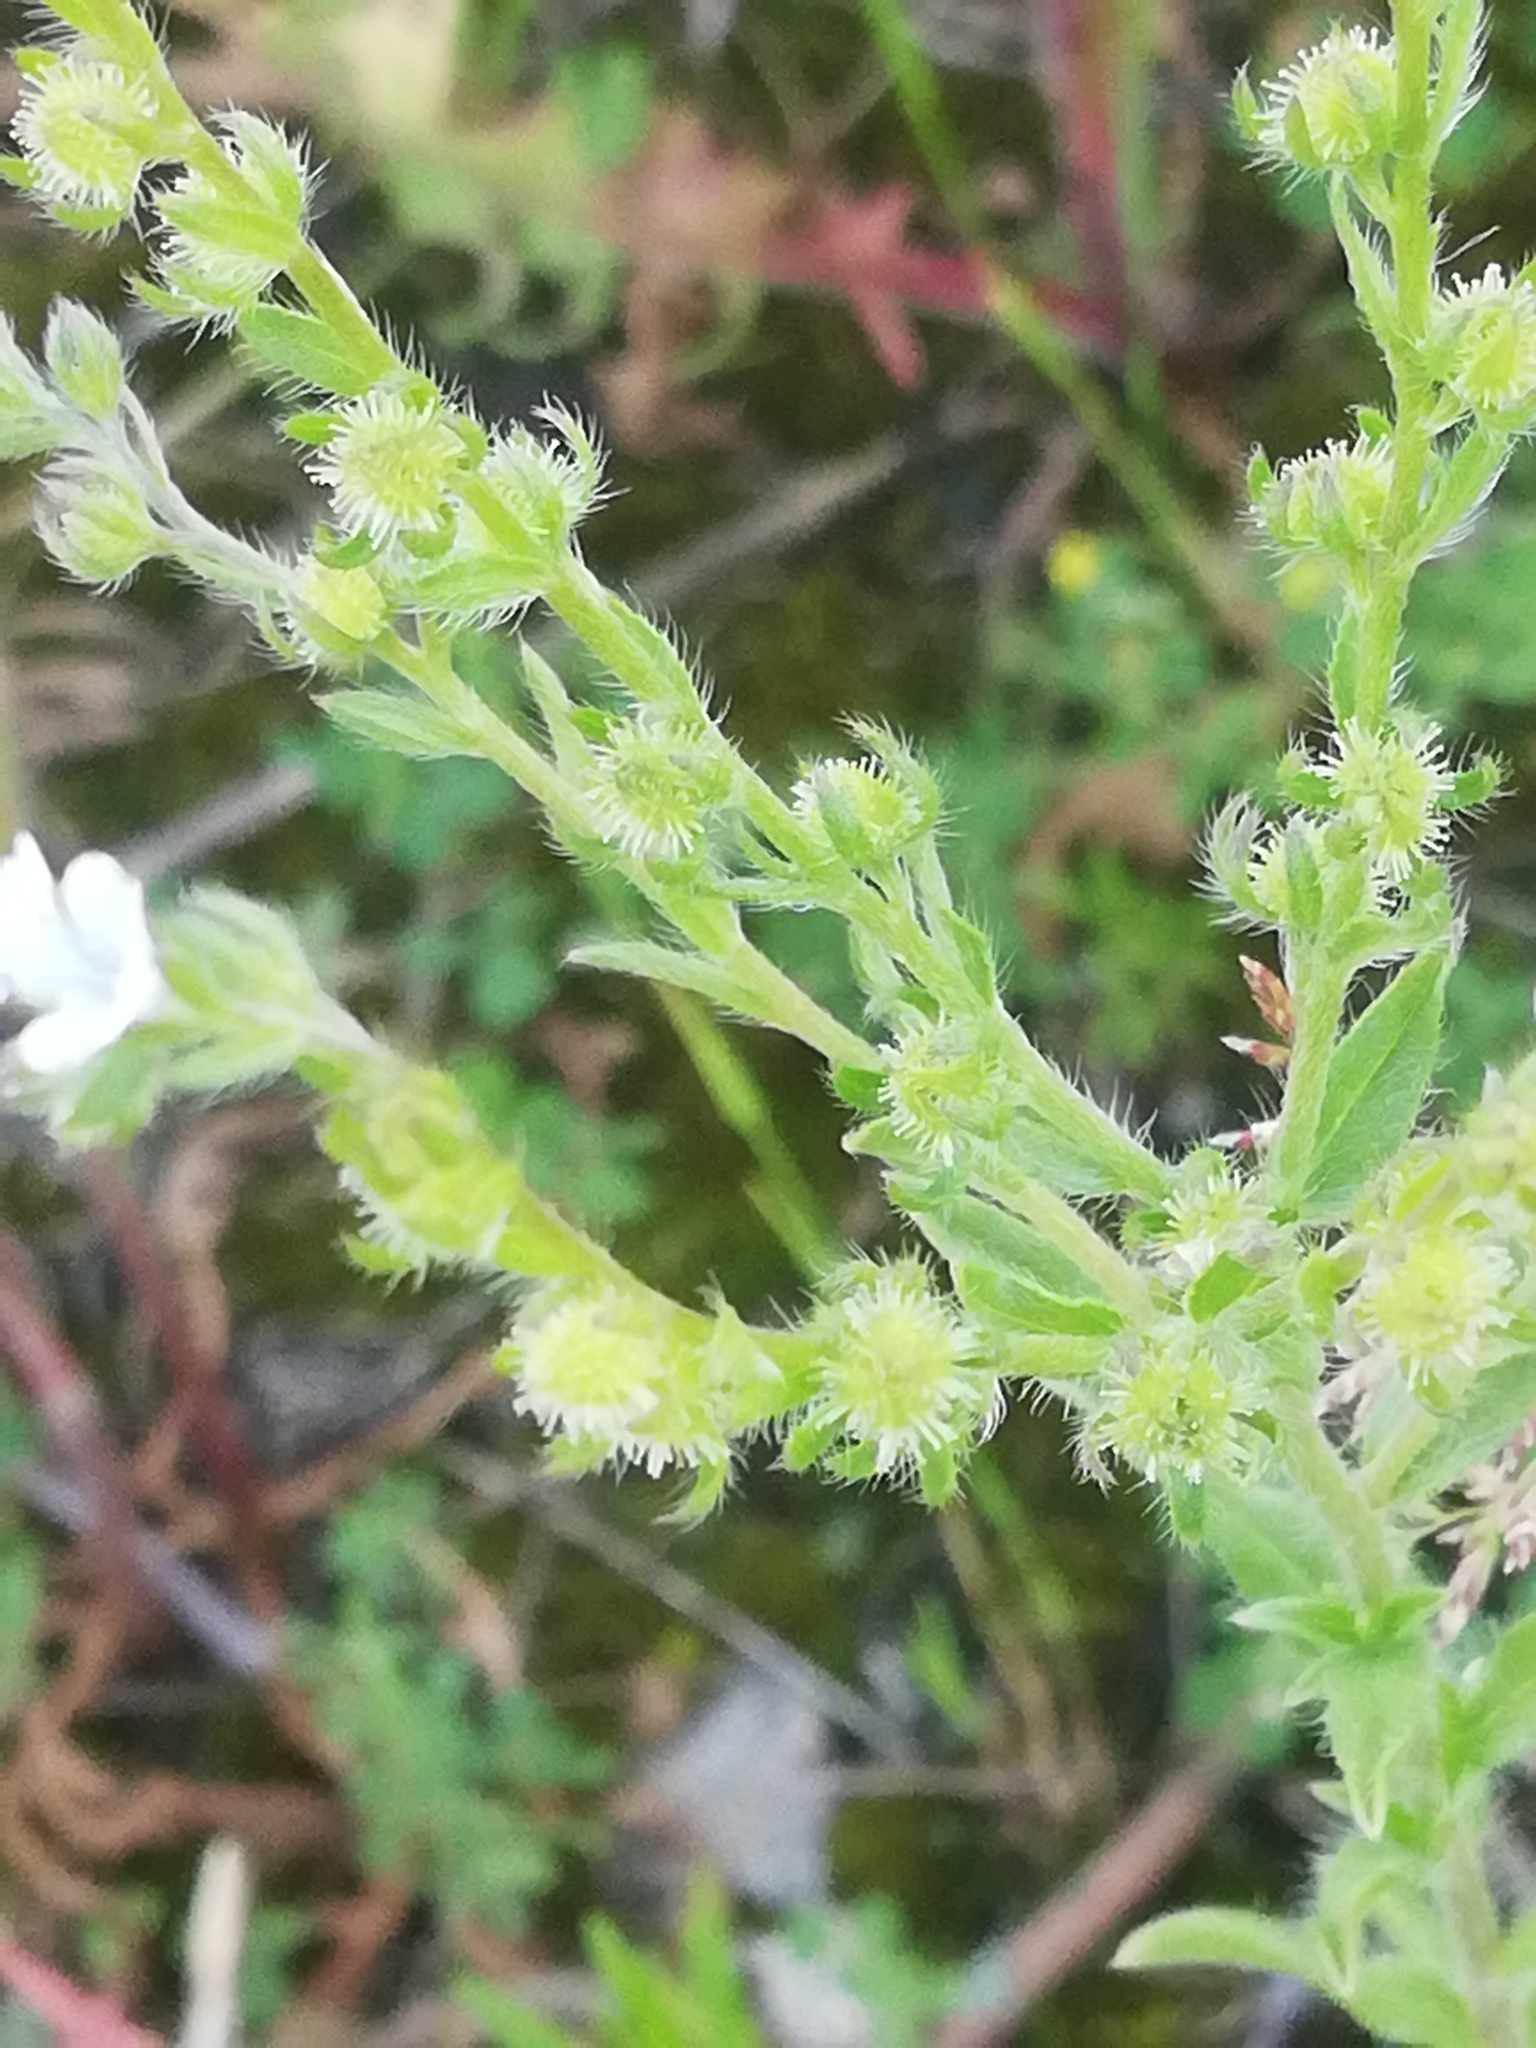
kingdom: Plantae
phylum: Tracheophyta
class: Magnoliopsida
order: Boraginales
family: Boraginaceae
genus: Lappula
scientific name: Lappula squarrosa
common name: European stickseed
